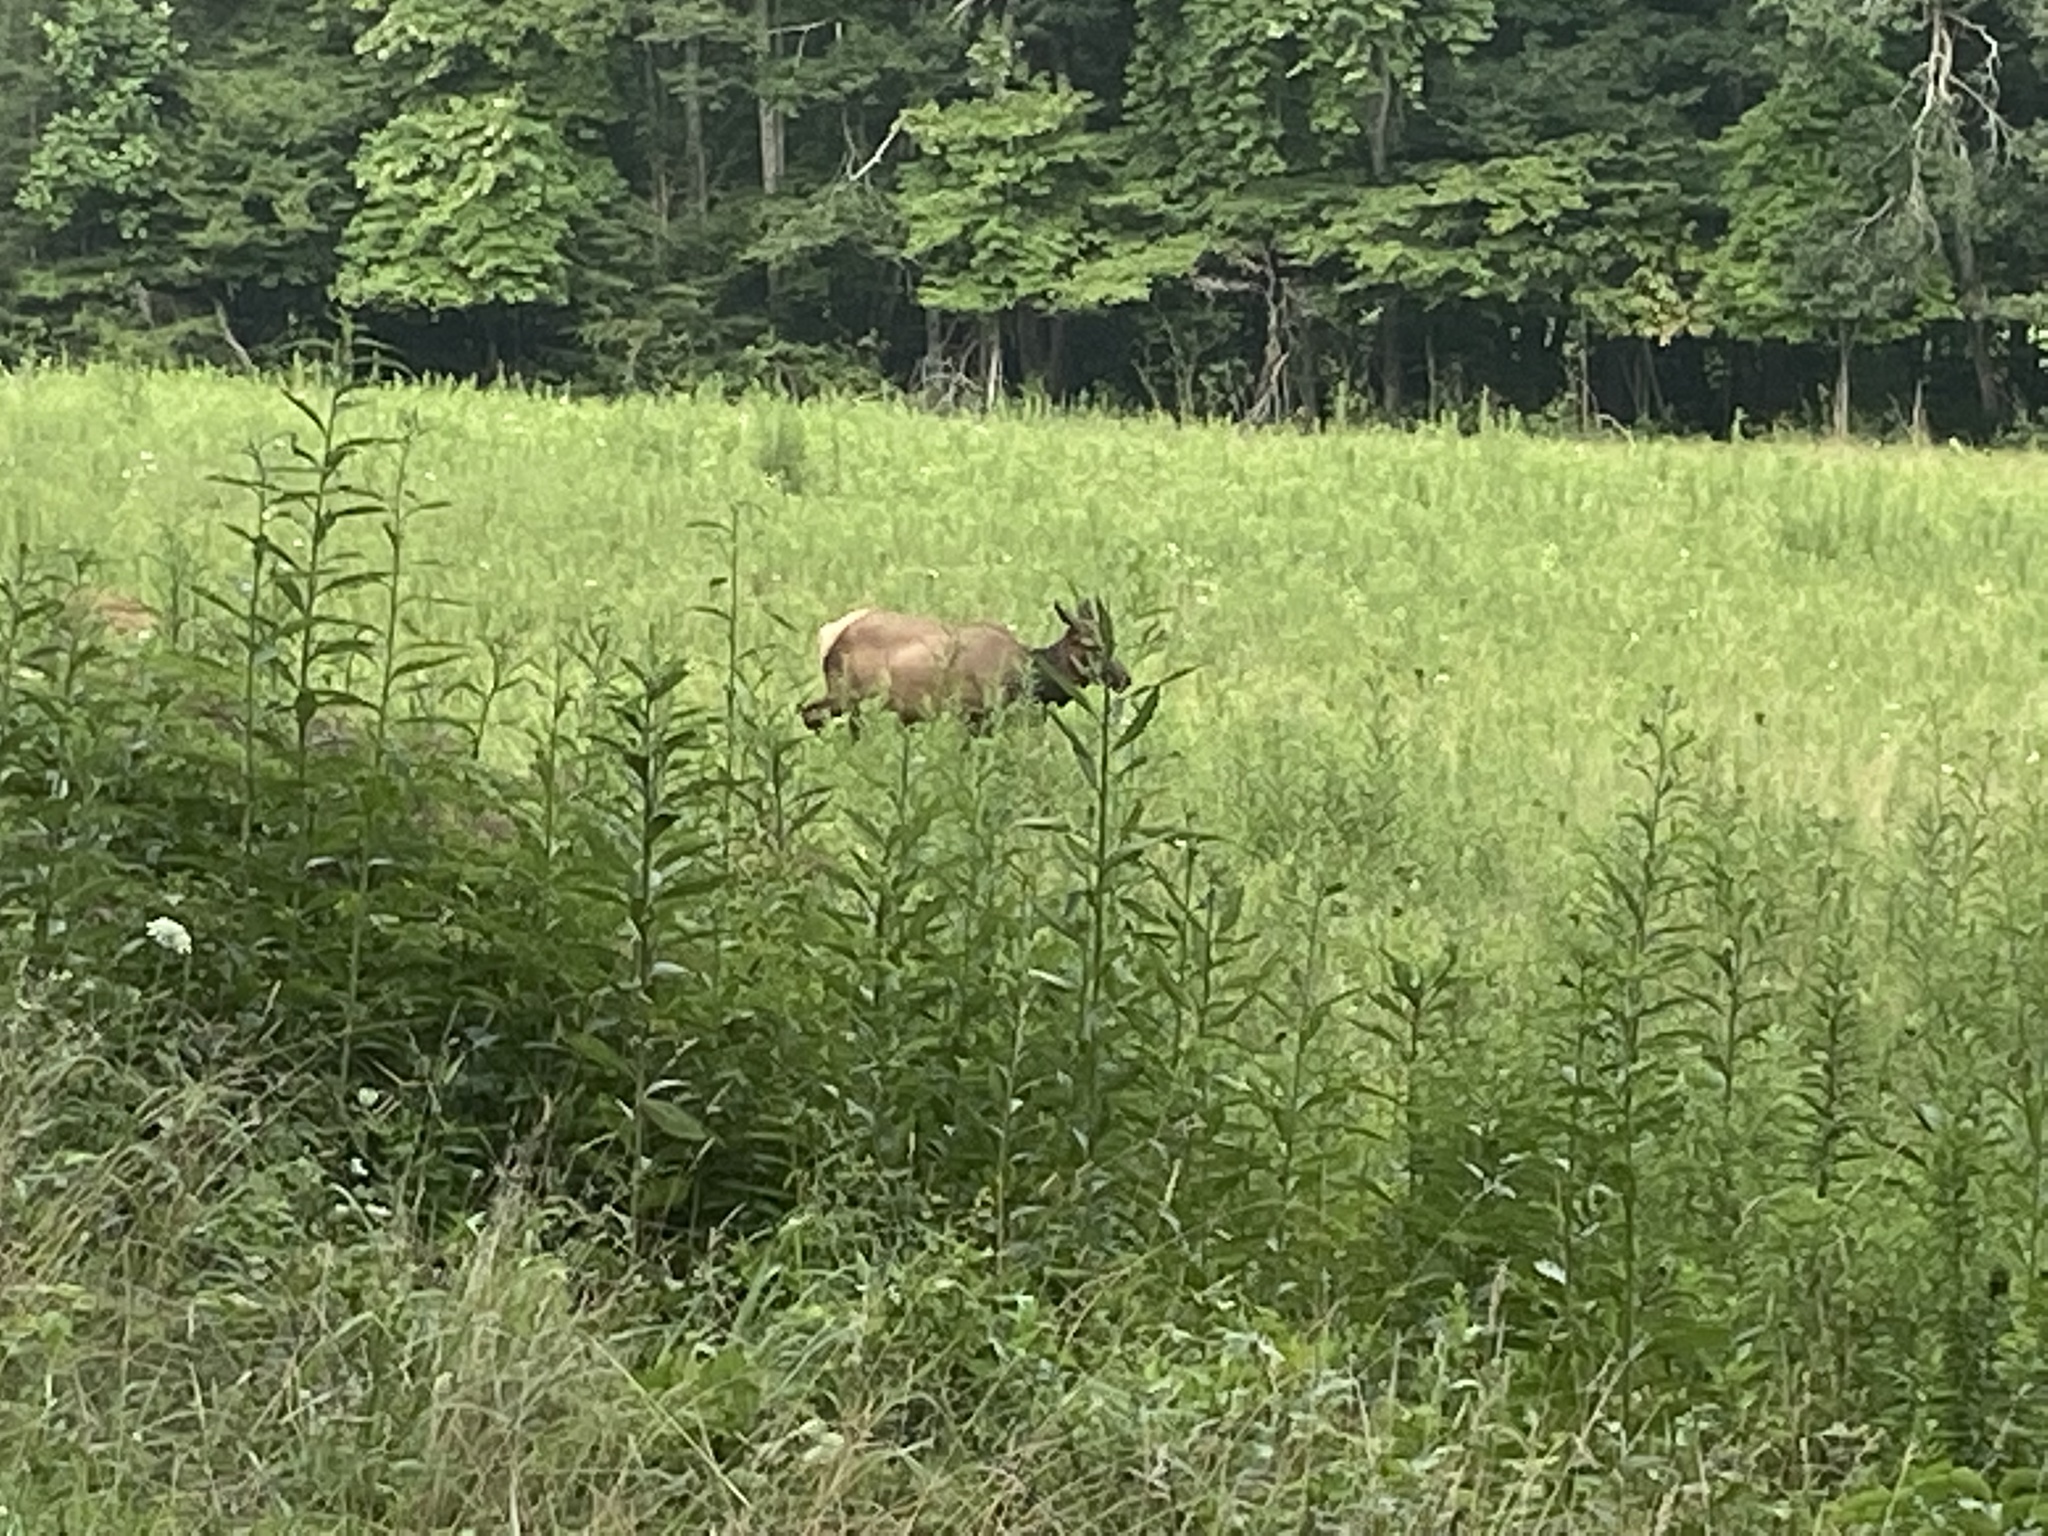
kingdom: Animalia
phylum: Chordata
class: Mammalia
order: Artiodactyla
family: Cervidae
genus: Cervus
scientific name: Cervus elaphus
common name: Red deer
